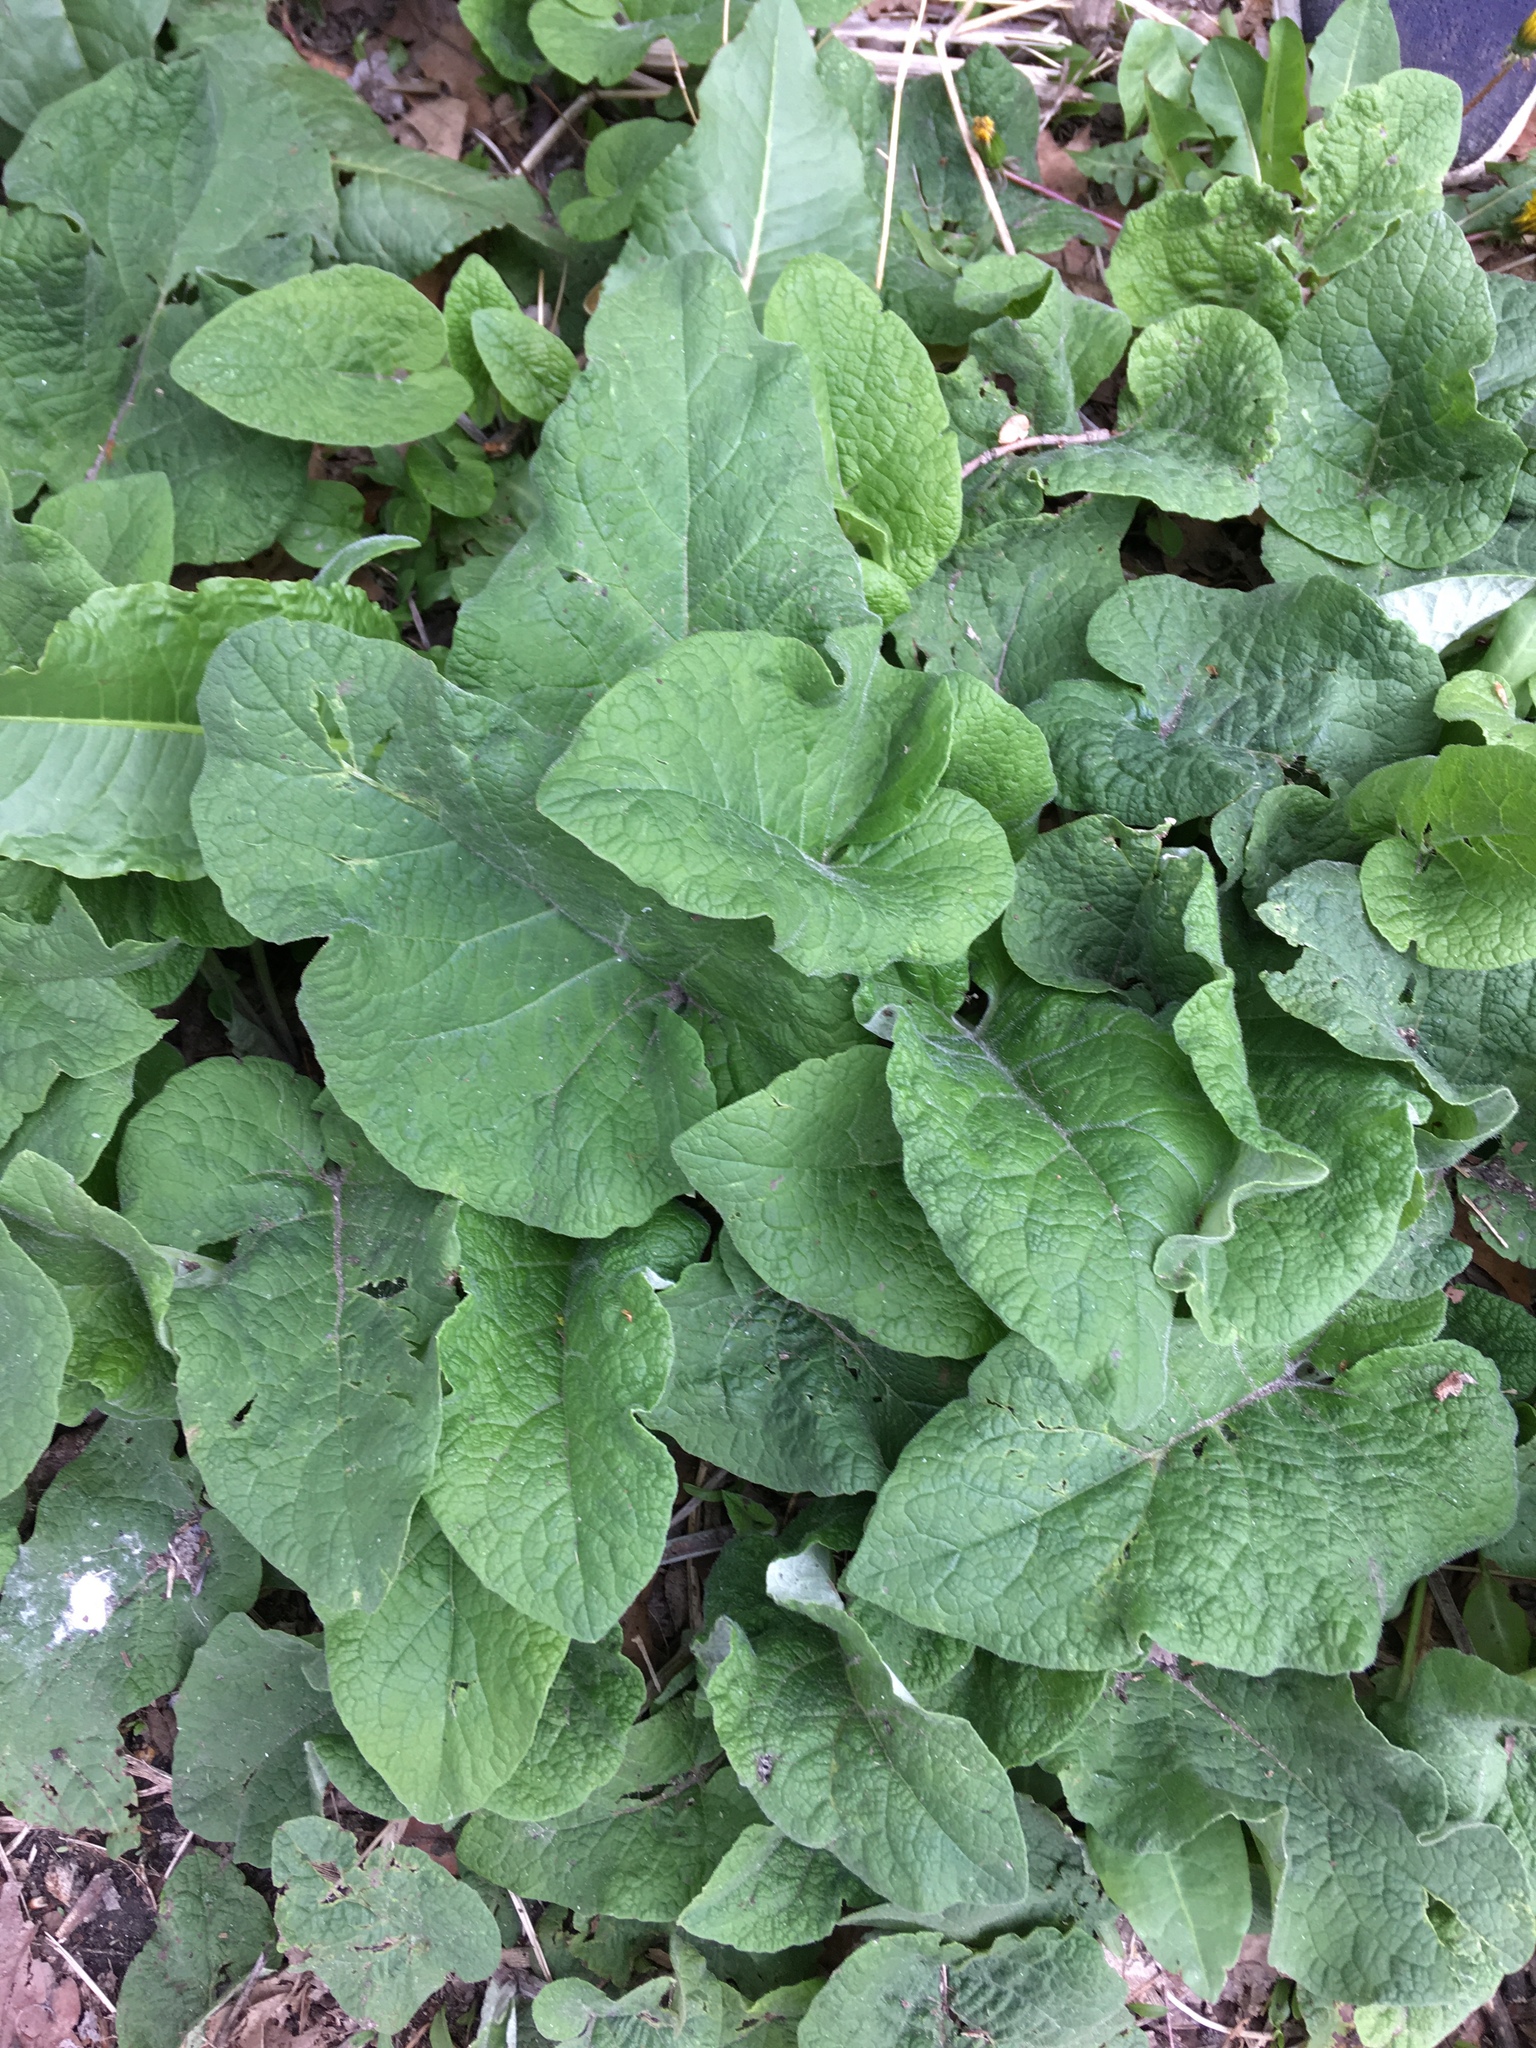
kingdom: Plantae
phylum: Tracheophyta
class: Magnoliopsida
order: Asterales
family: Asteraceae
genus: Arctium
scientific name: Arctium
